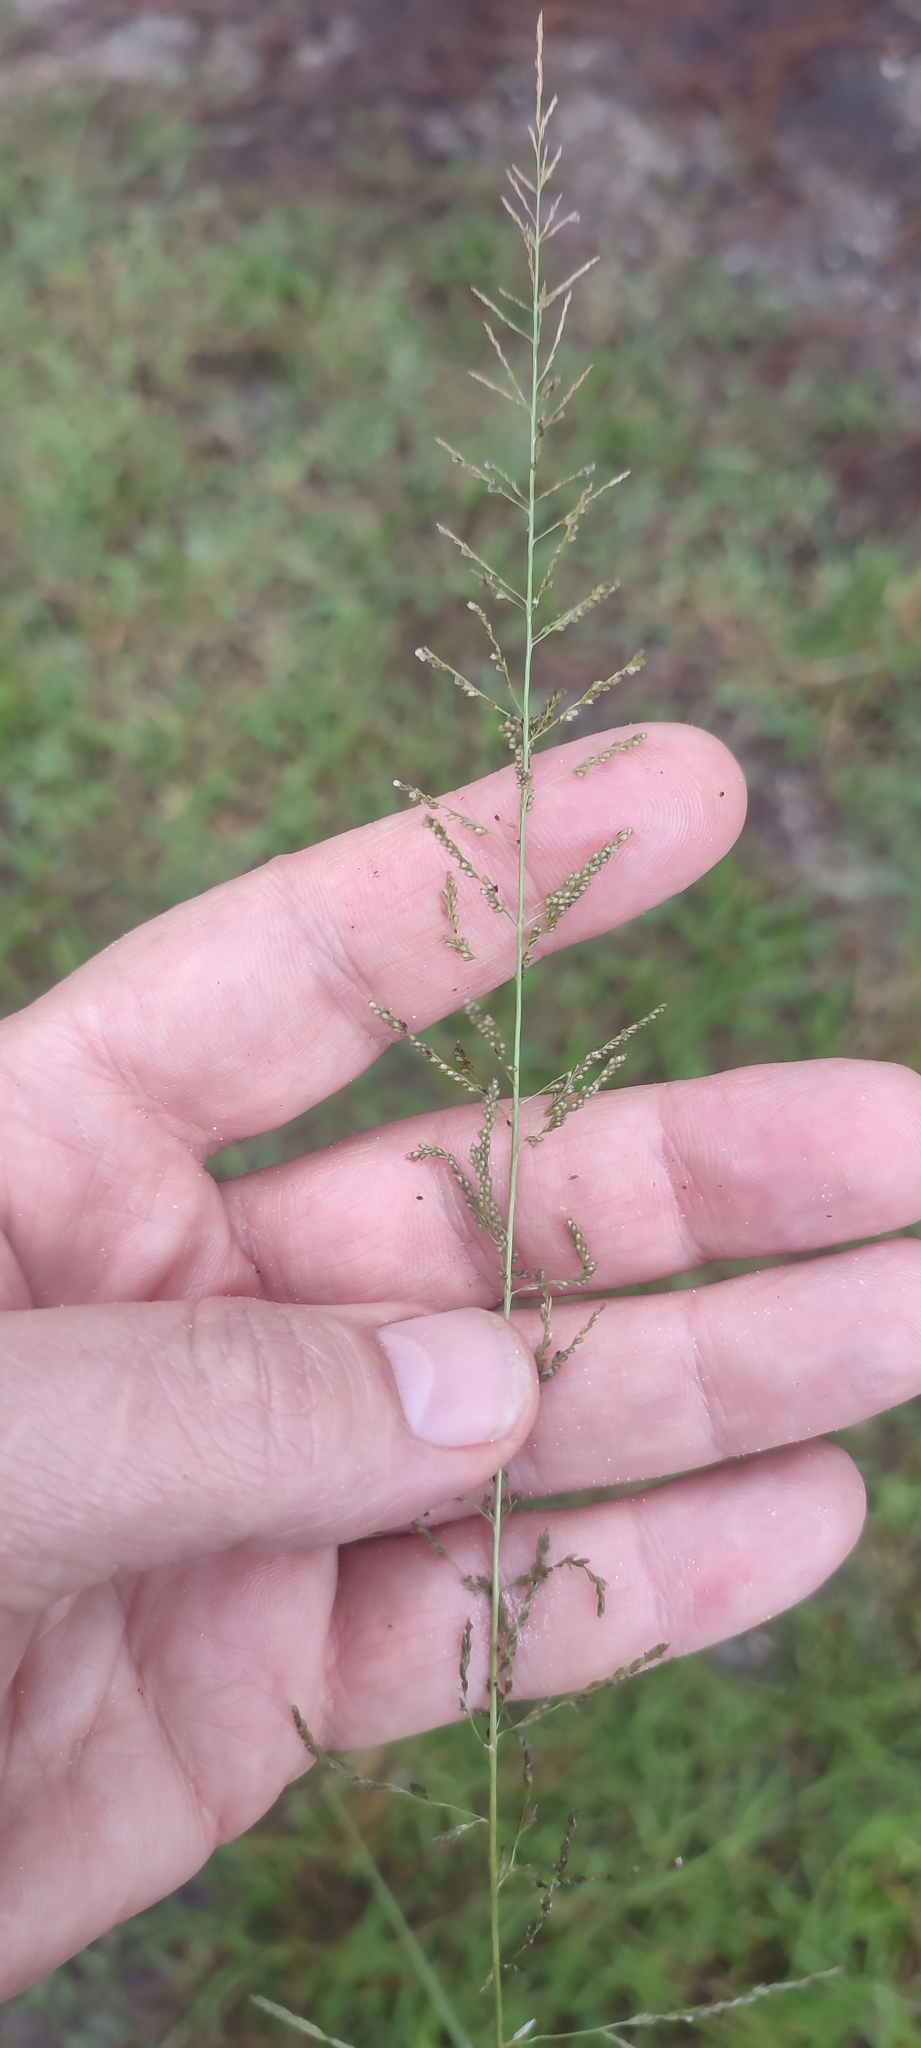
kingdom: Plantae
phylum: Tracheophyta
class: Liliopsida
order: Poales
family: Poaceae
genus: Sporobolus
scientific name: Sporobolus diandrus
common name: Tussock dropseed
